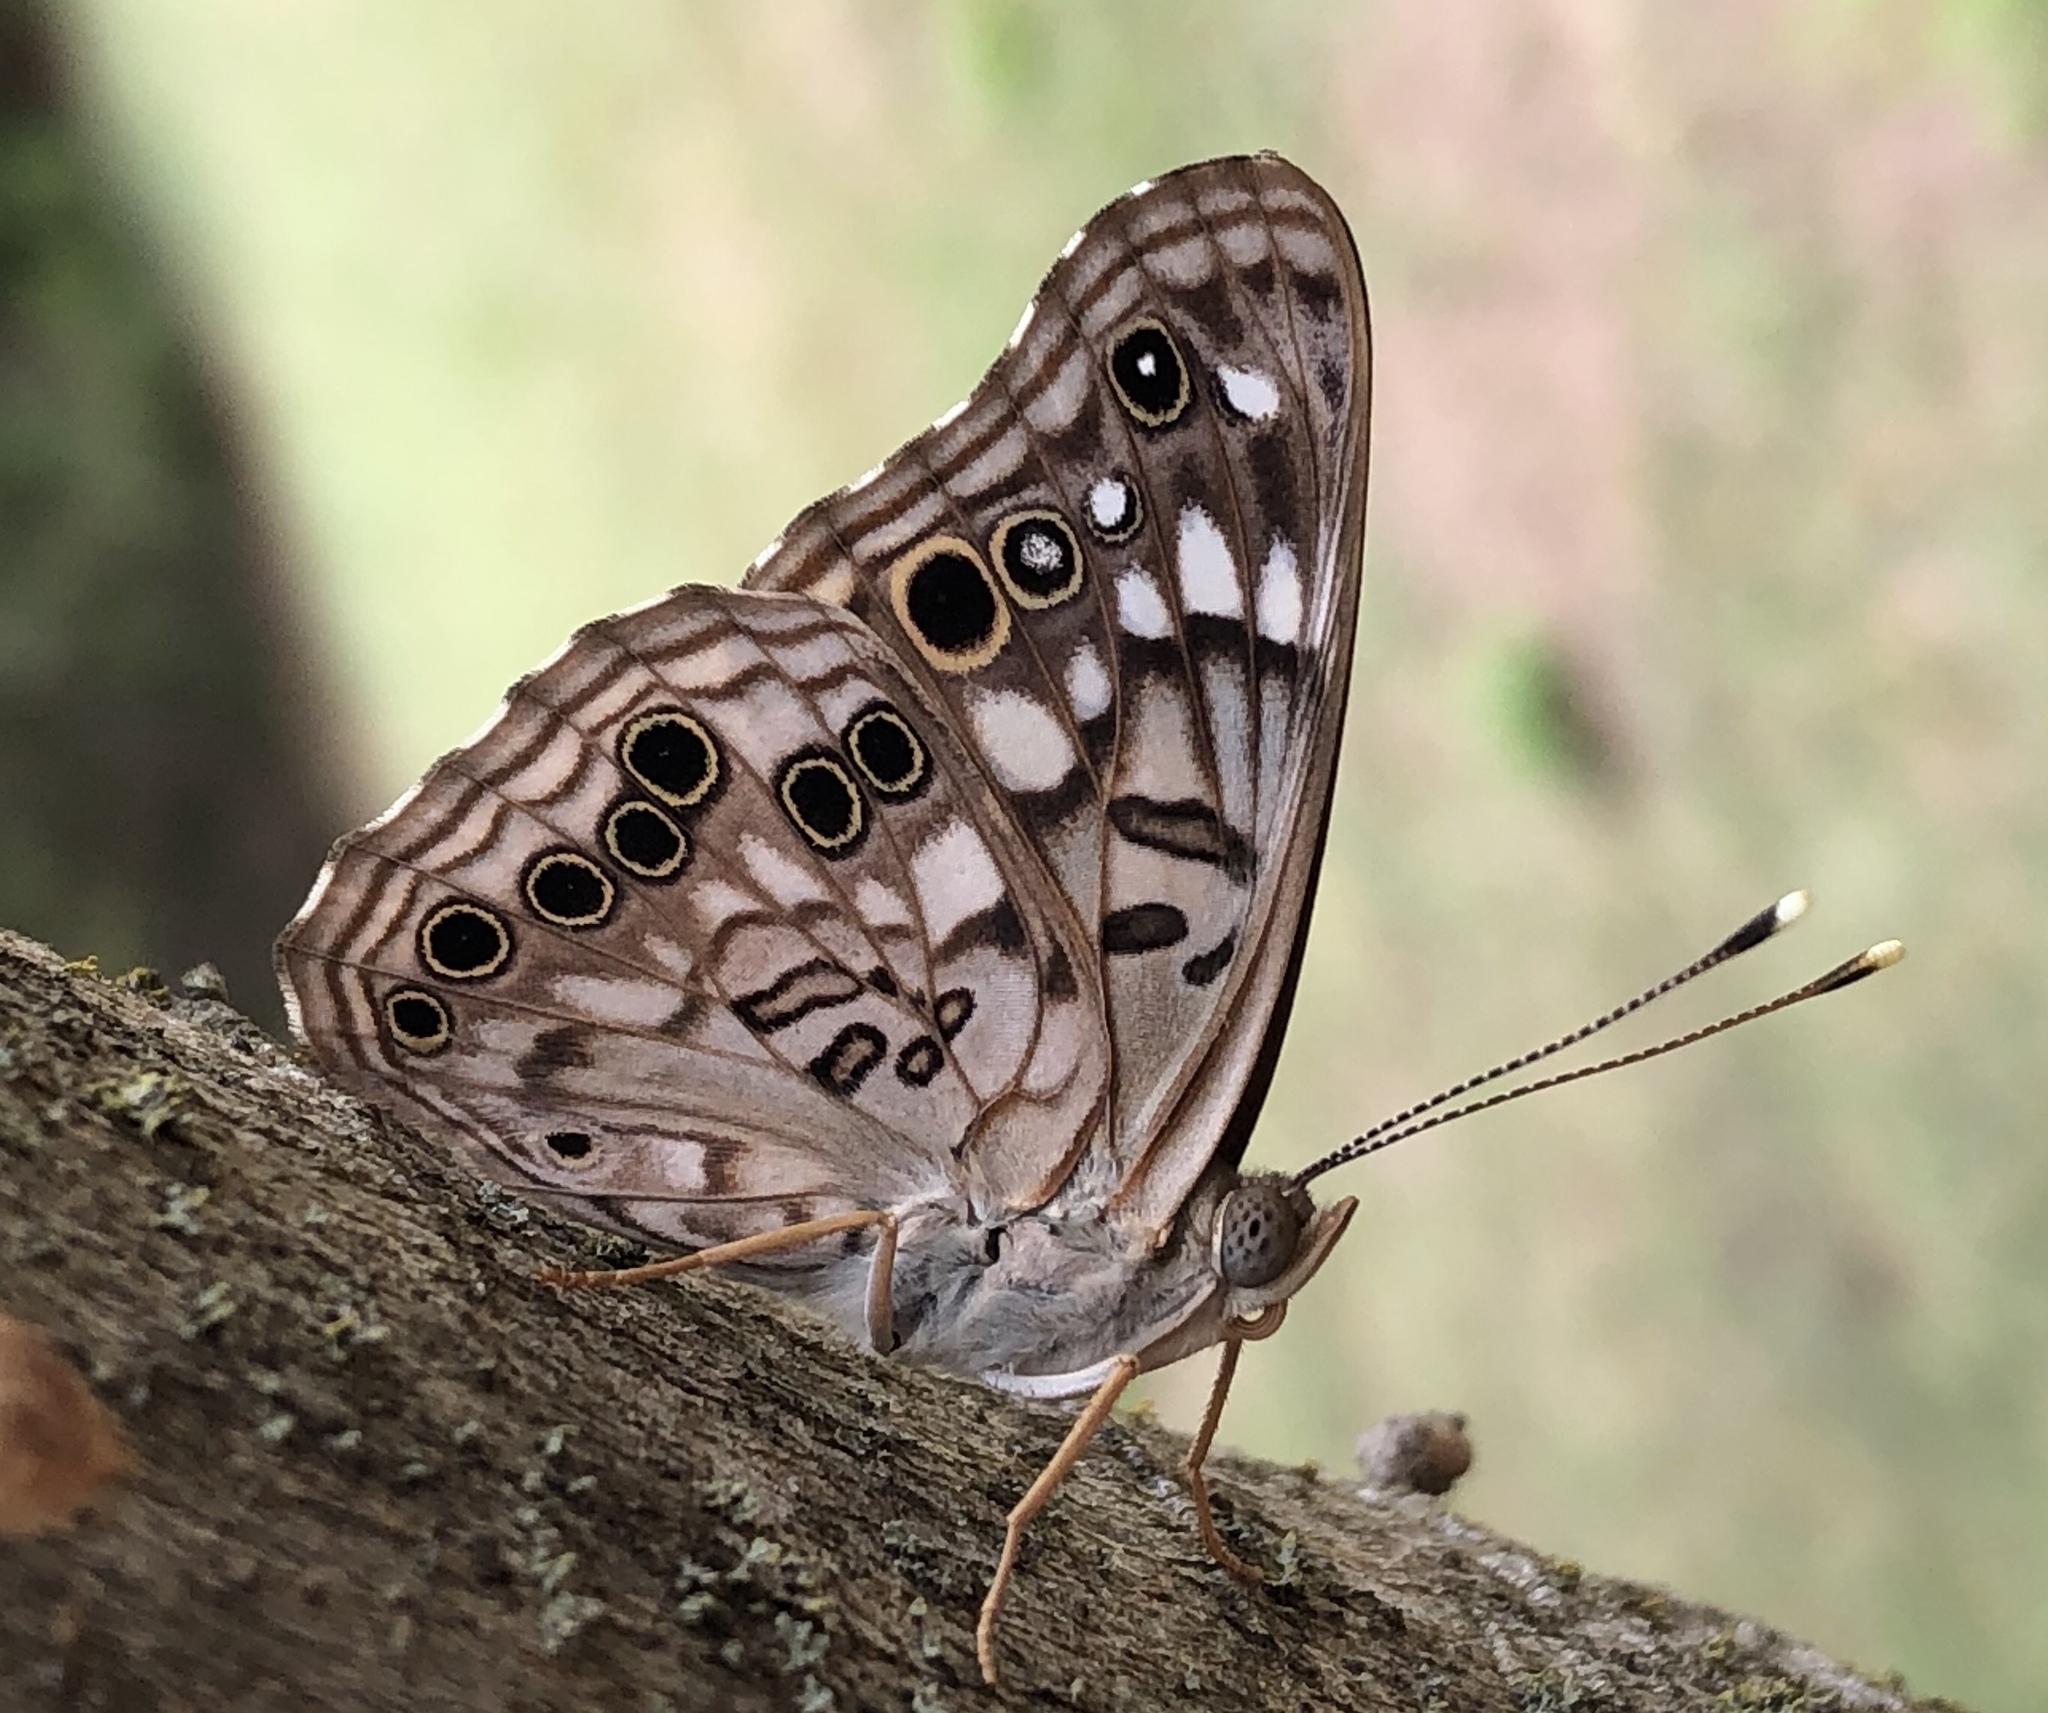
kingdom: Animalia
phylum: Arthropoda
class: Insecta
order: Lepidoptera
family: Nymphalidae
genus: Asterocampa
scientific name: Asterocampa celtis
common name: Hackberry emperor
